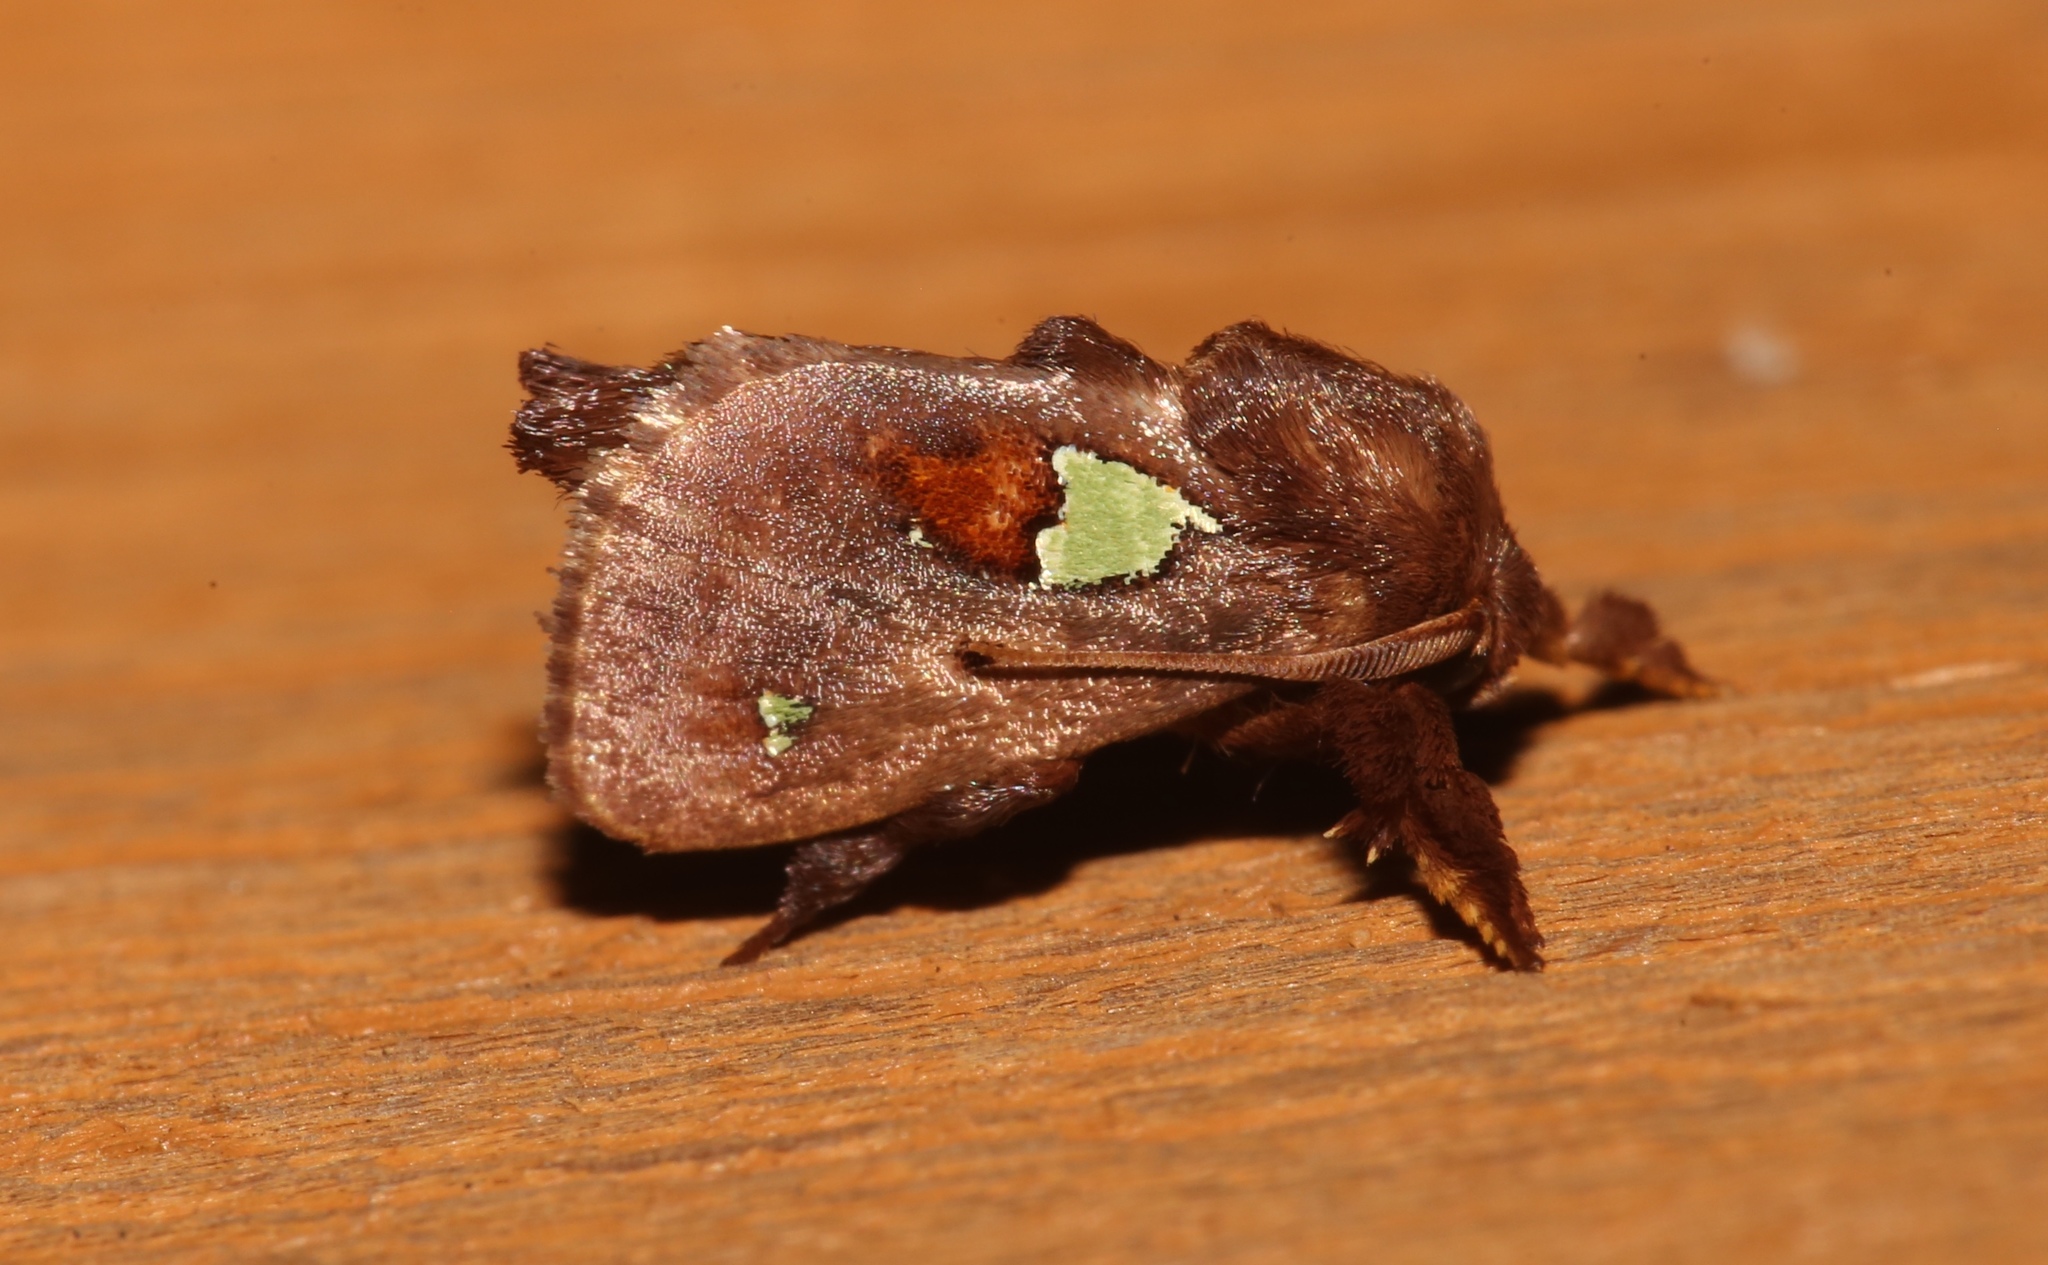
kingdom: Animalia
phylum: Arthropoda
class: Insecta
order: Lepidoptera
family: Limacodidae
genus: Euclea
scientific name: Euclea delphinii
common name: Spiny oak-slug moth
